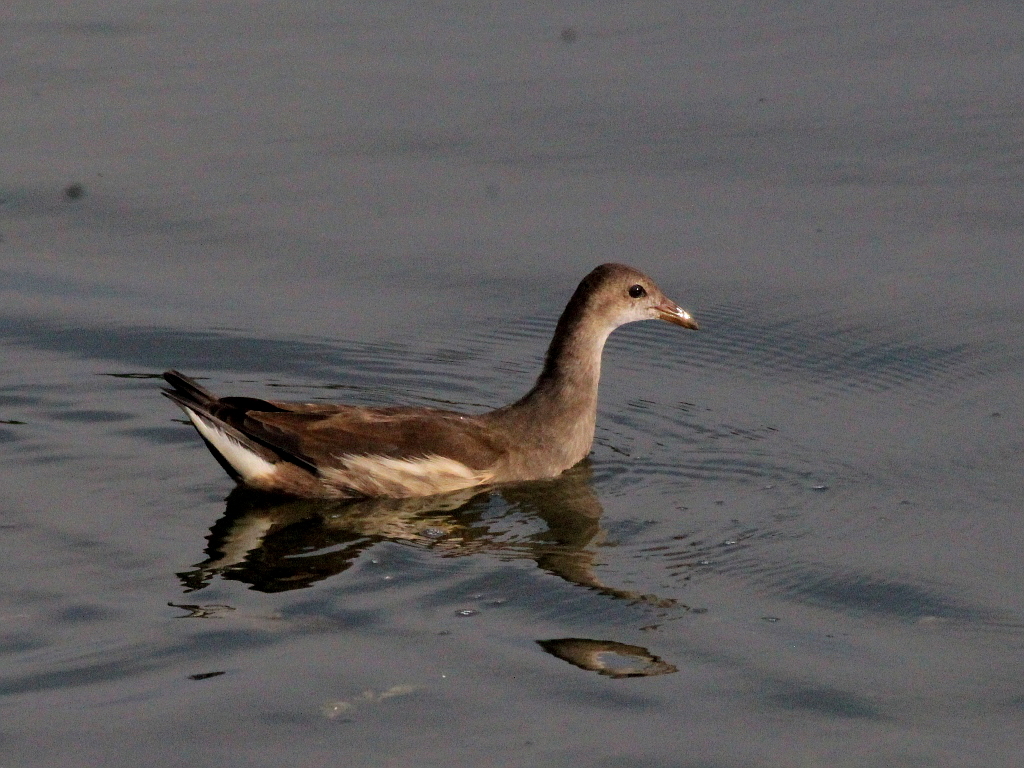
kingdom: Animalia
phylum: Chordata
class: Aves
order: Gruiformes
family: Rallidae
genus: Gallinula
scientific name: Gallinula chloropus
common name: Common moorhen
